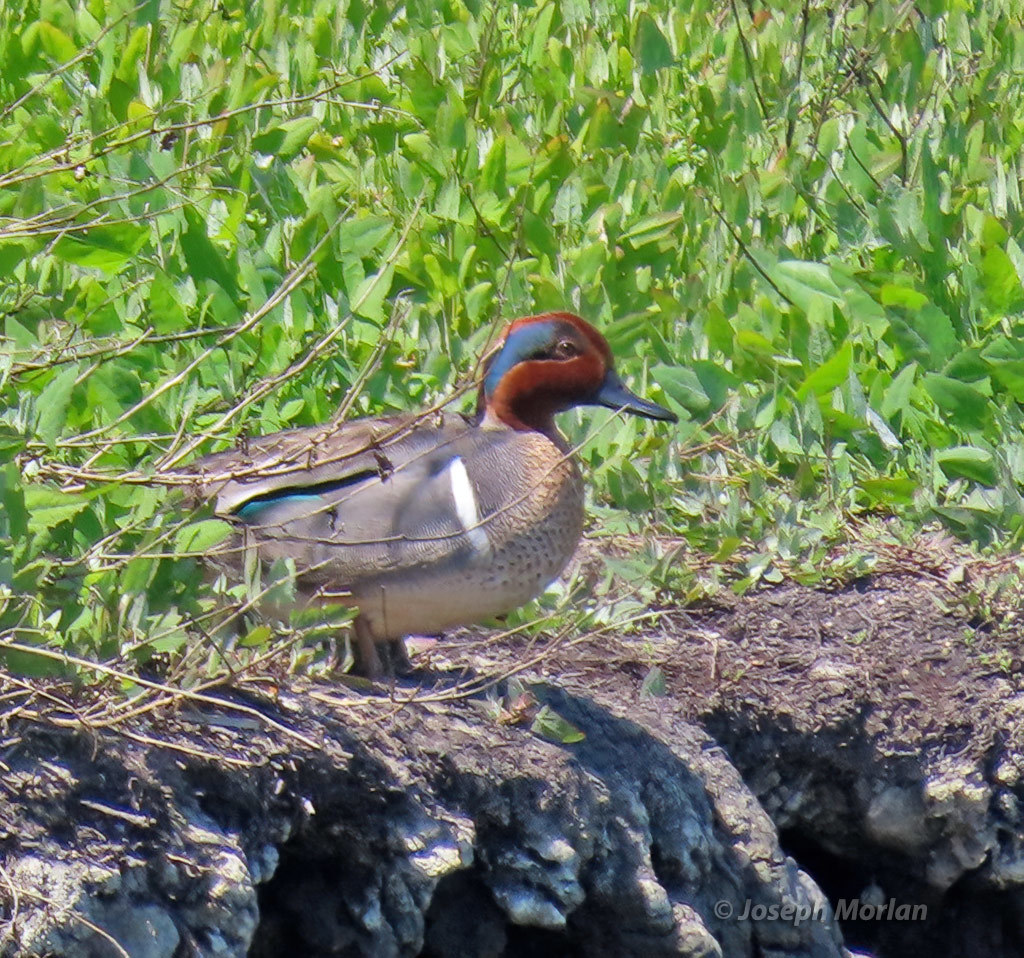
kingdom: Animalia
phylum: Chordata
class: Aves
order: Anseriformes
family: Anatidae
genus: Anas
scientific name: Anas crecca
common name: Eurasian teal
